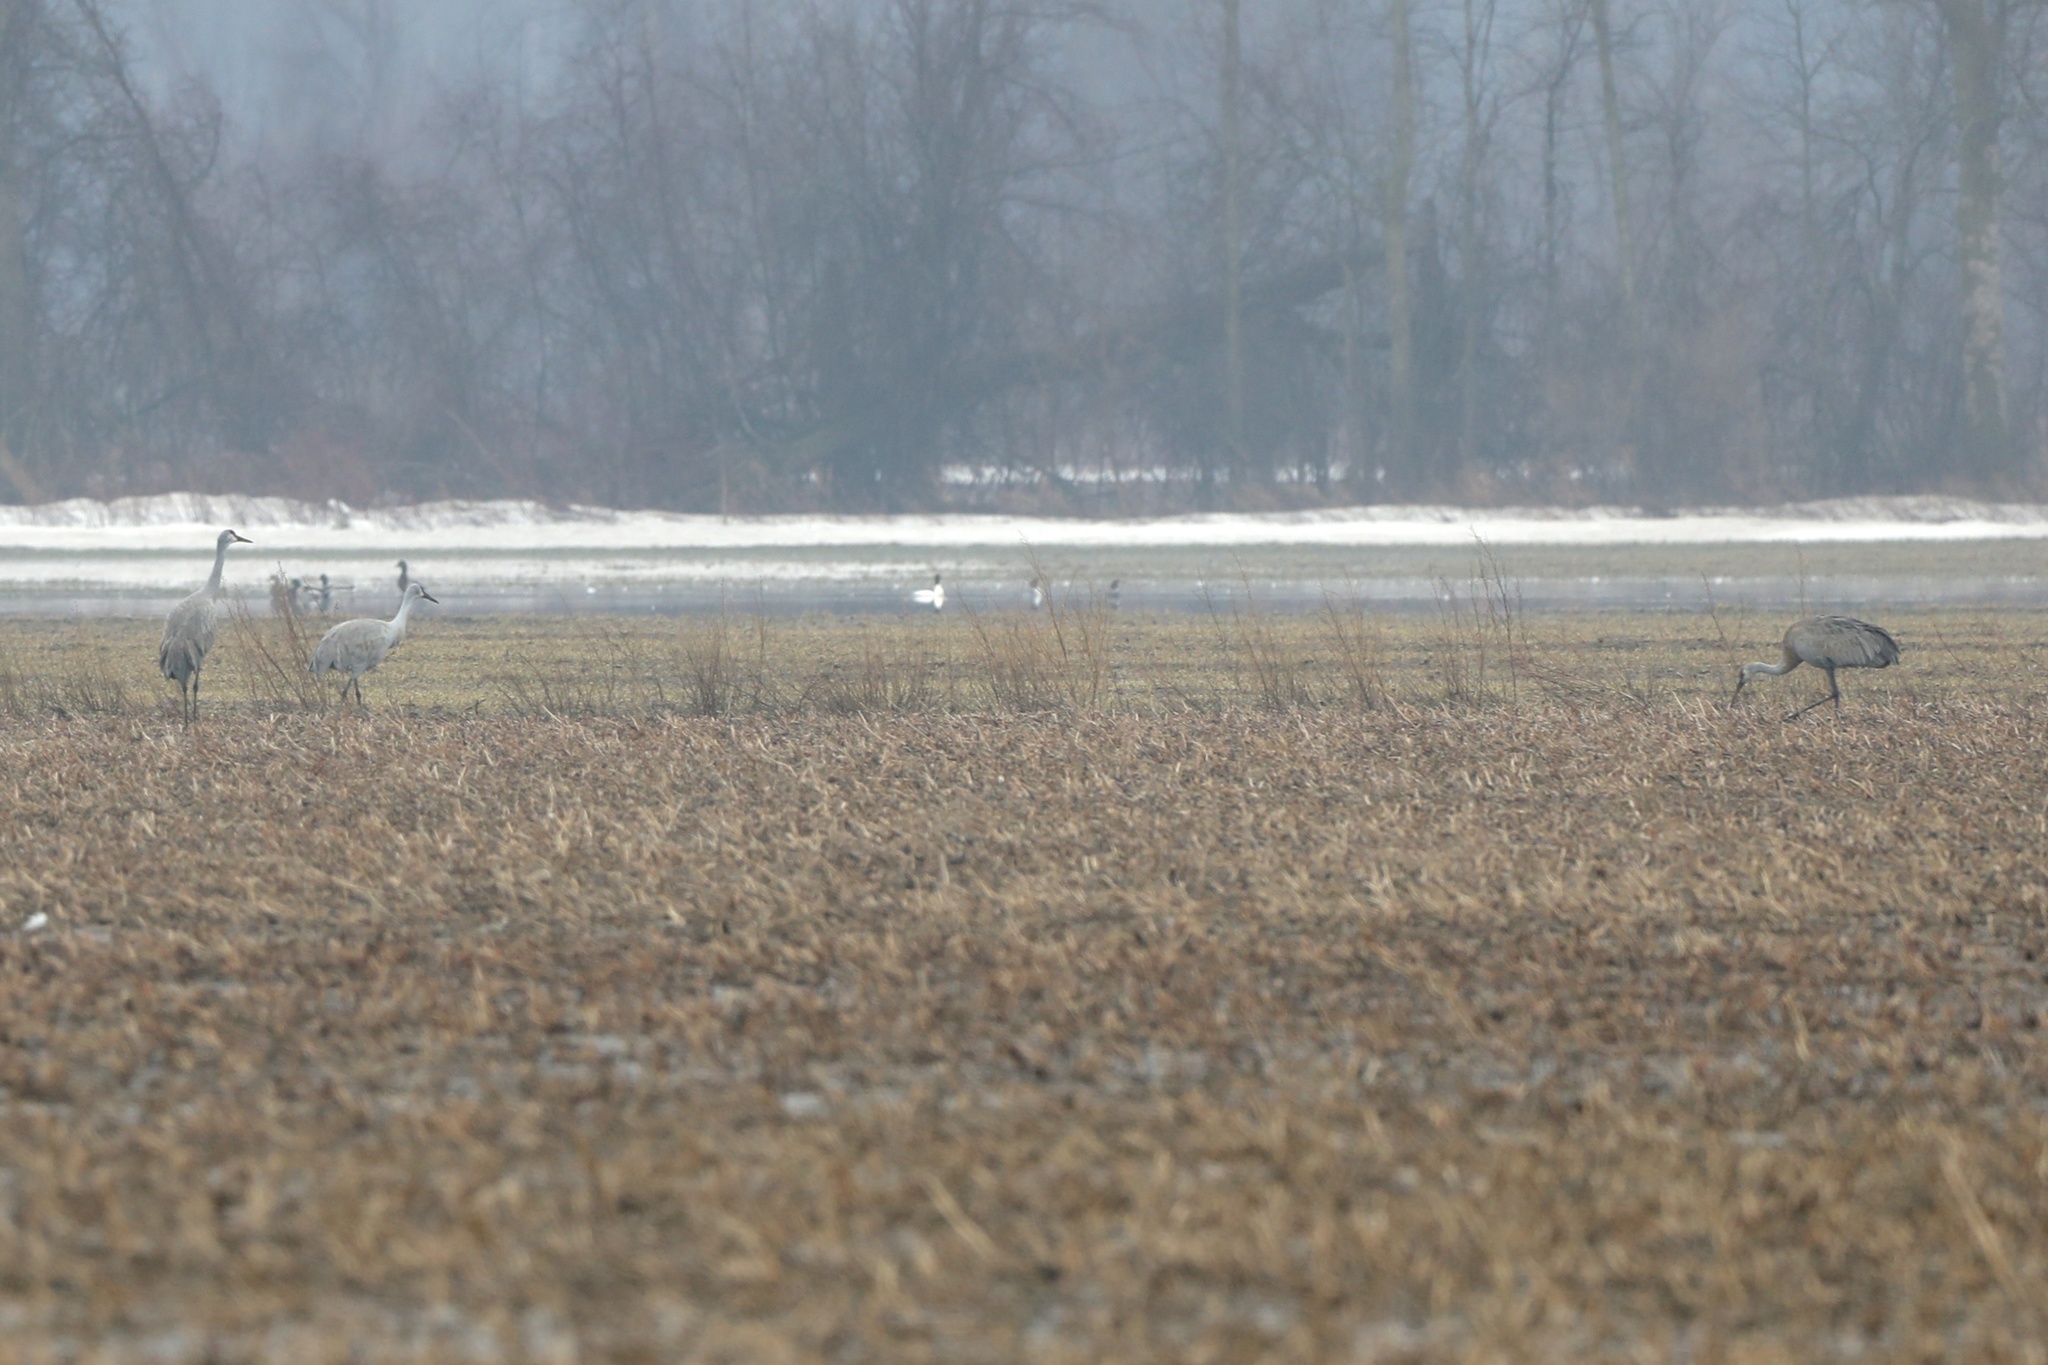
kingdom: Animalia
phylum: Chordata
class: Aves
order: Gruiformes
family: Gruidae
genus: Grus
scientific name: Grus canadensis
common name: Sandhill crane
